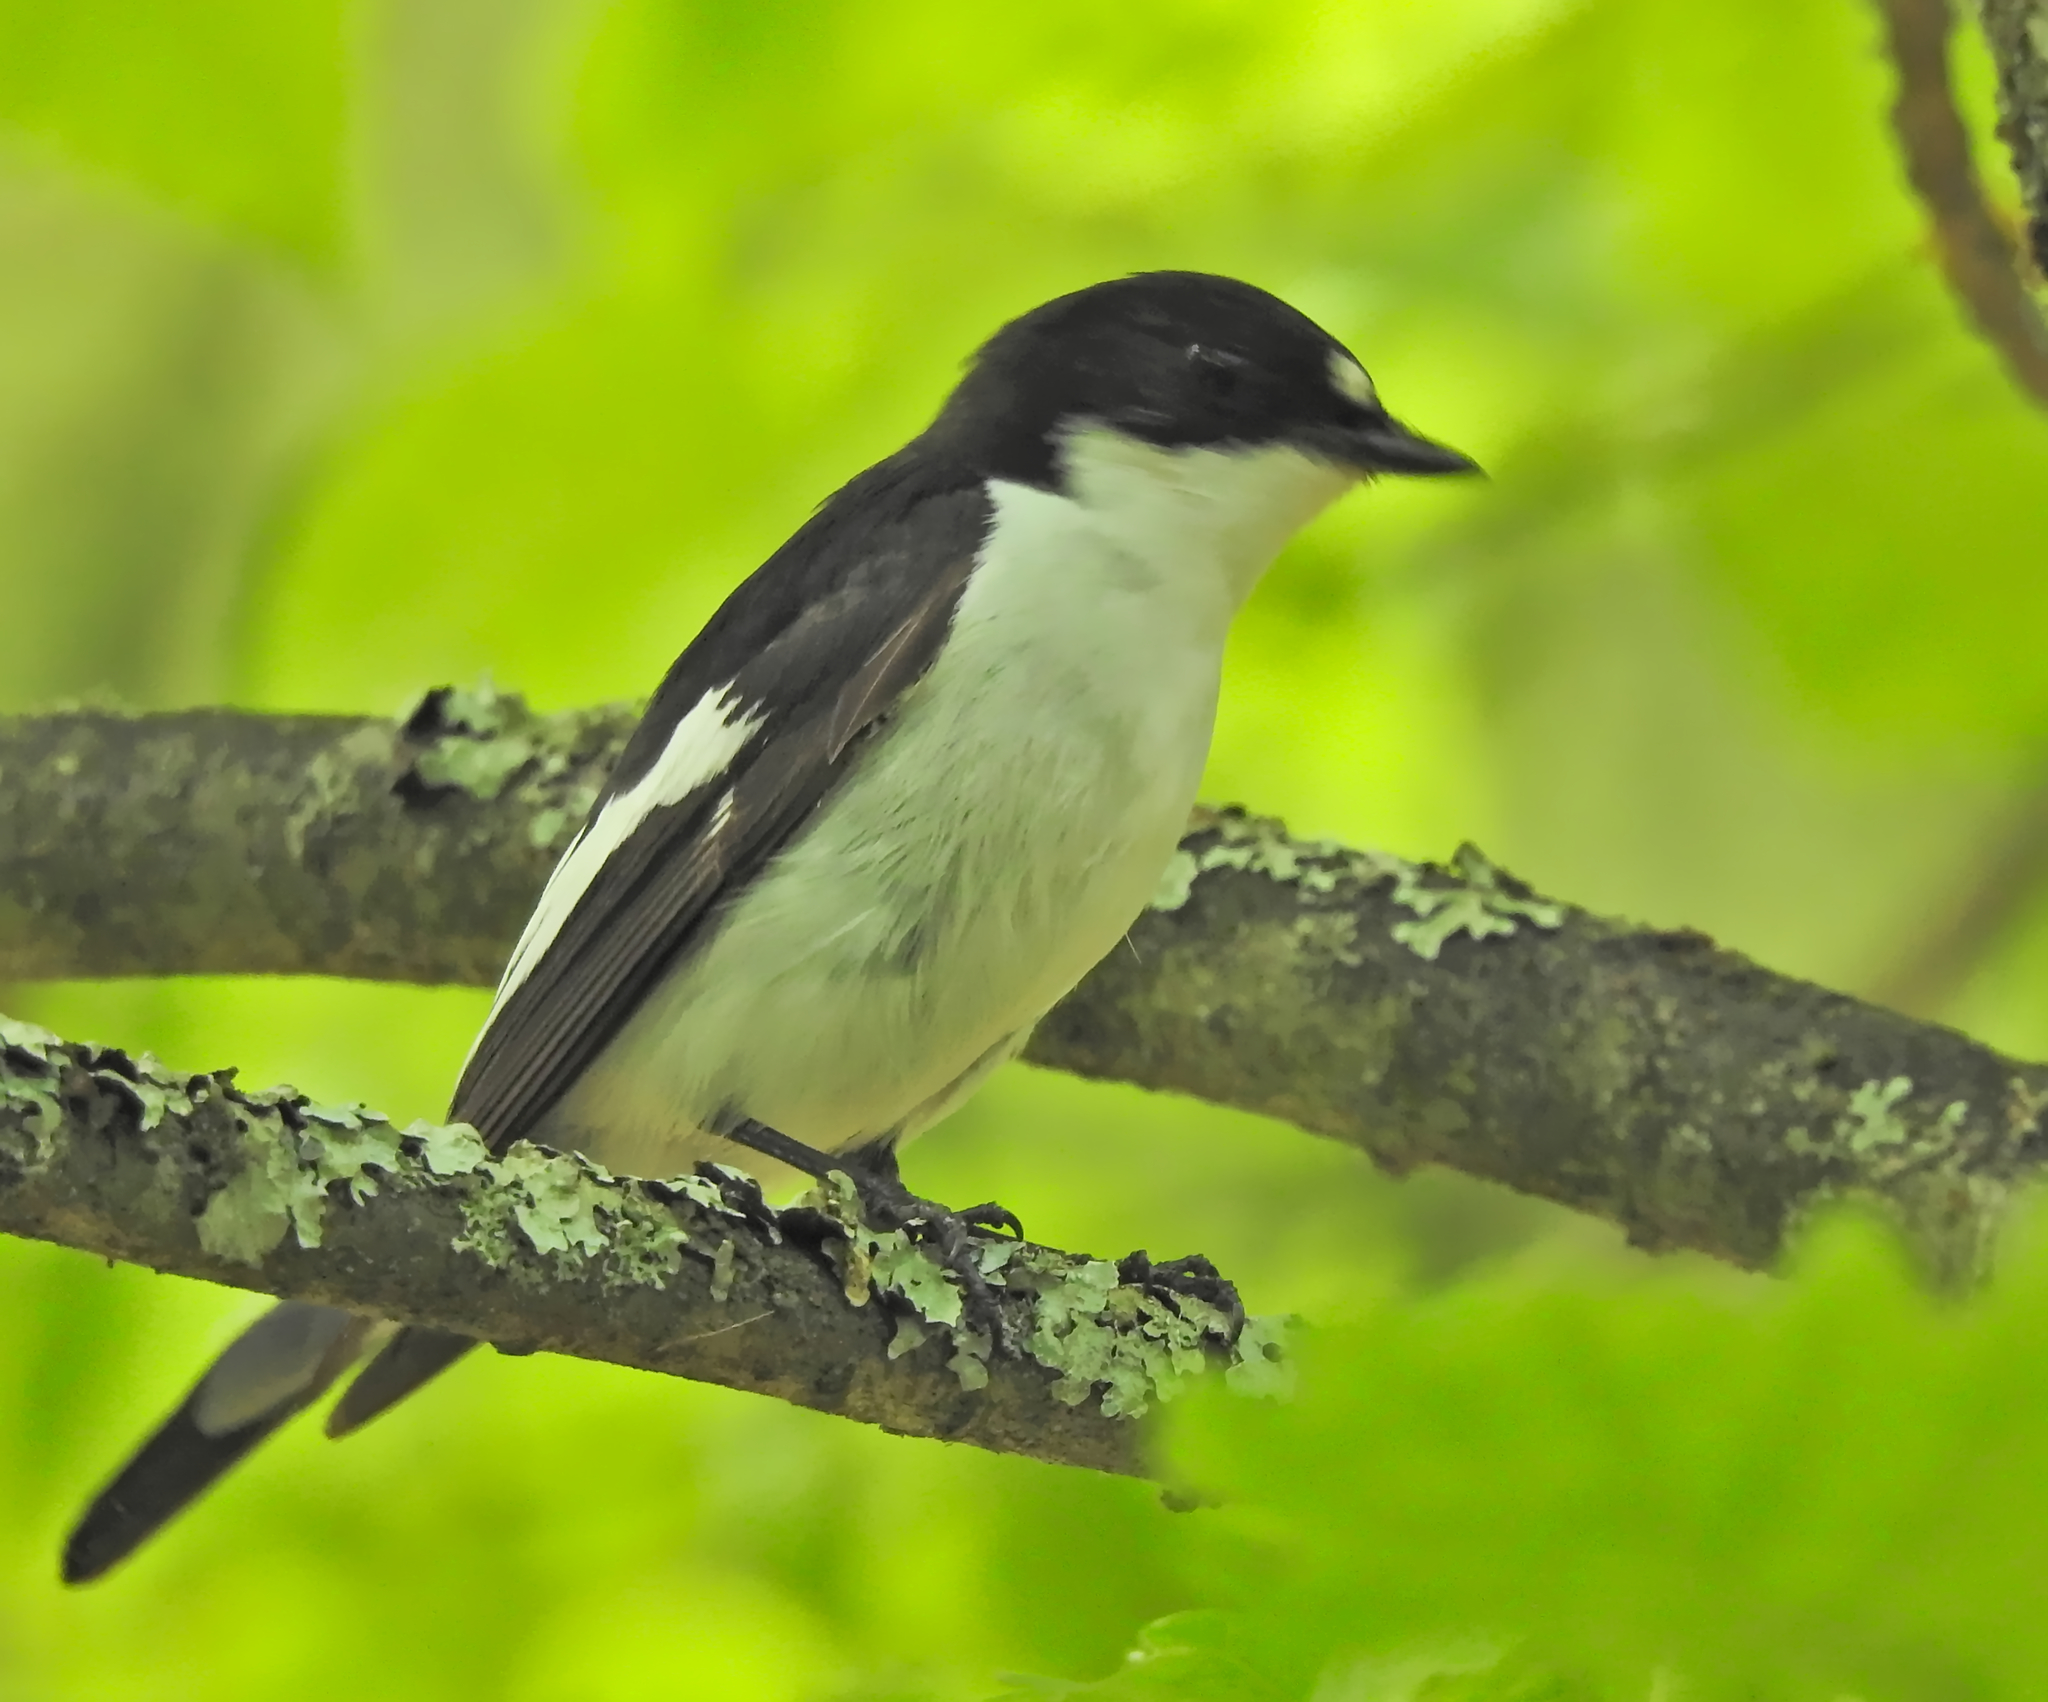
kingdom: Animalia
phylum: Chordata
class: Aves
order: Passeriformes
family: Muscicapidae
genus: Ficedula
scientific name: Ficedula hypoleuca
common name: European pied flycatcher
